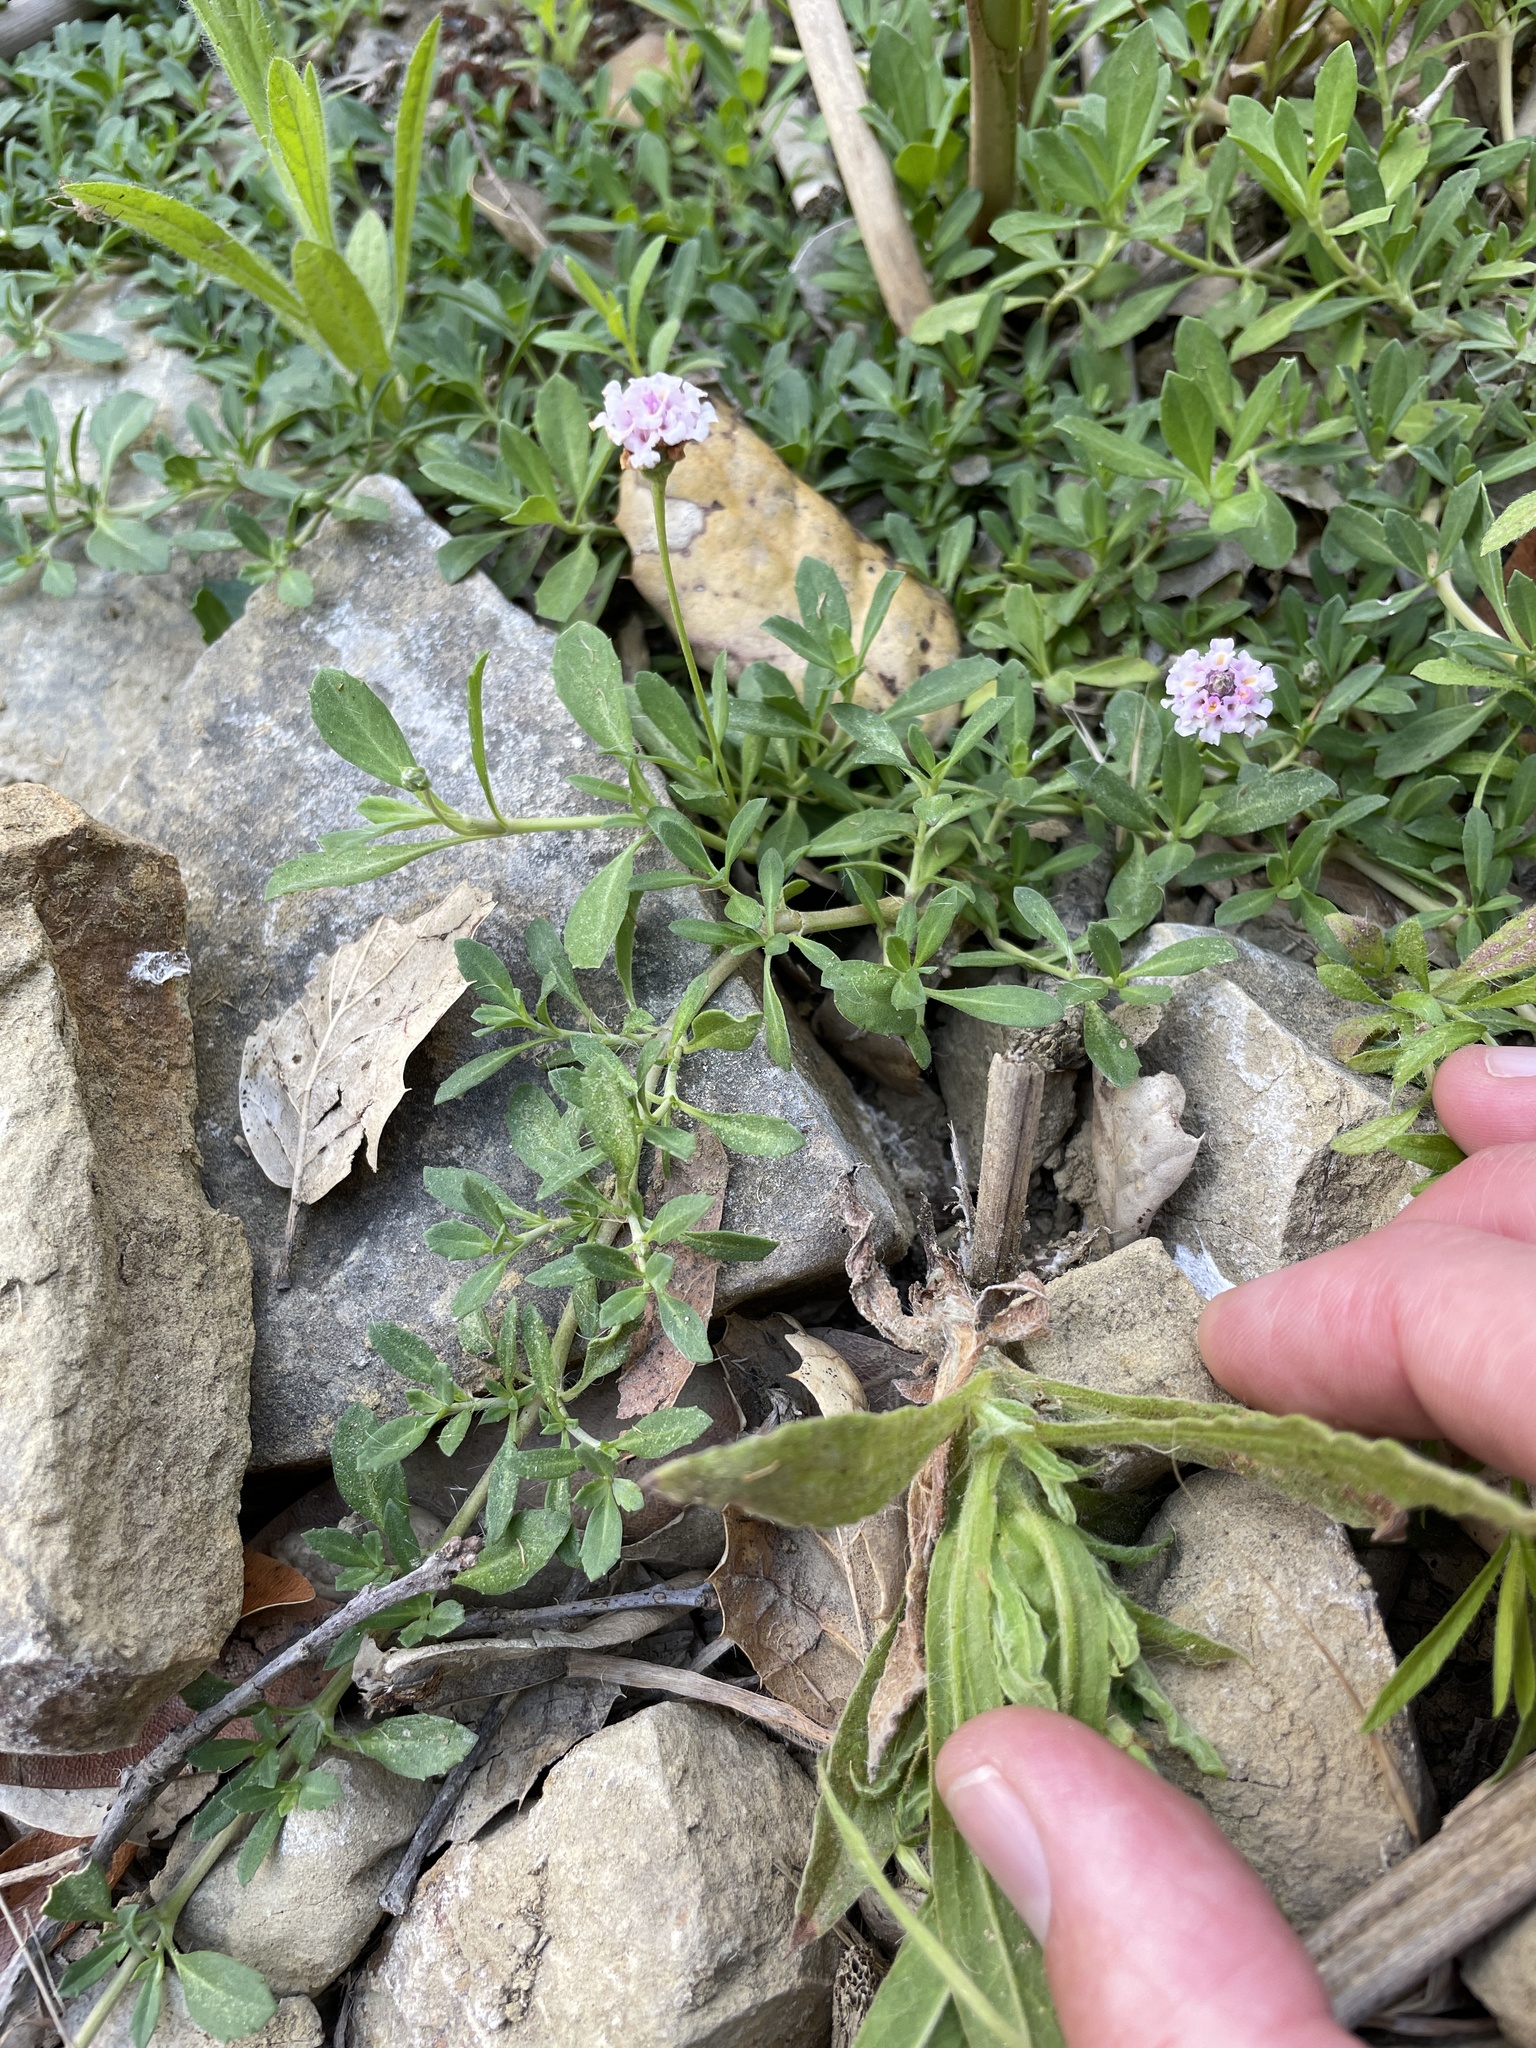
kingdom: Plantae
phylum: Tracheophyta
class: Magnoliopsida
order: Lamiales
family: Verbenaceae
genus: Phyla
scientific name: Phyla nodiflora
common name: Frogfruit
